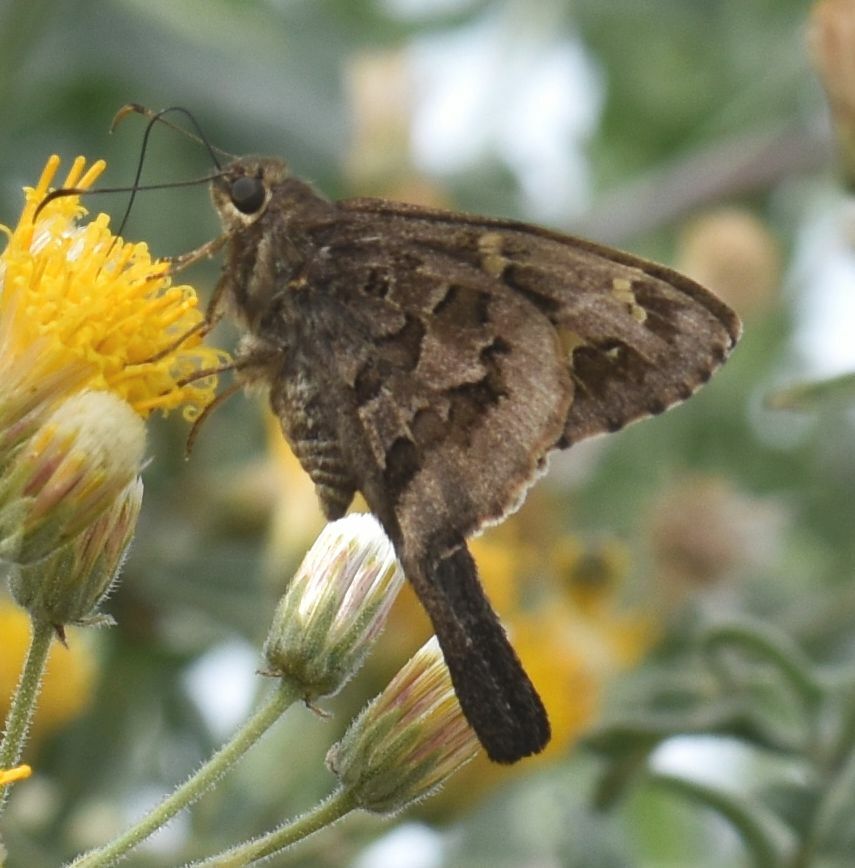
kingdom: Animalia
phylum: Arthropoda
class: Insecta
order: Lepidoptera
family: Hesperiidae
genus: Thorybes
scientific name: Thorybes
